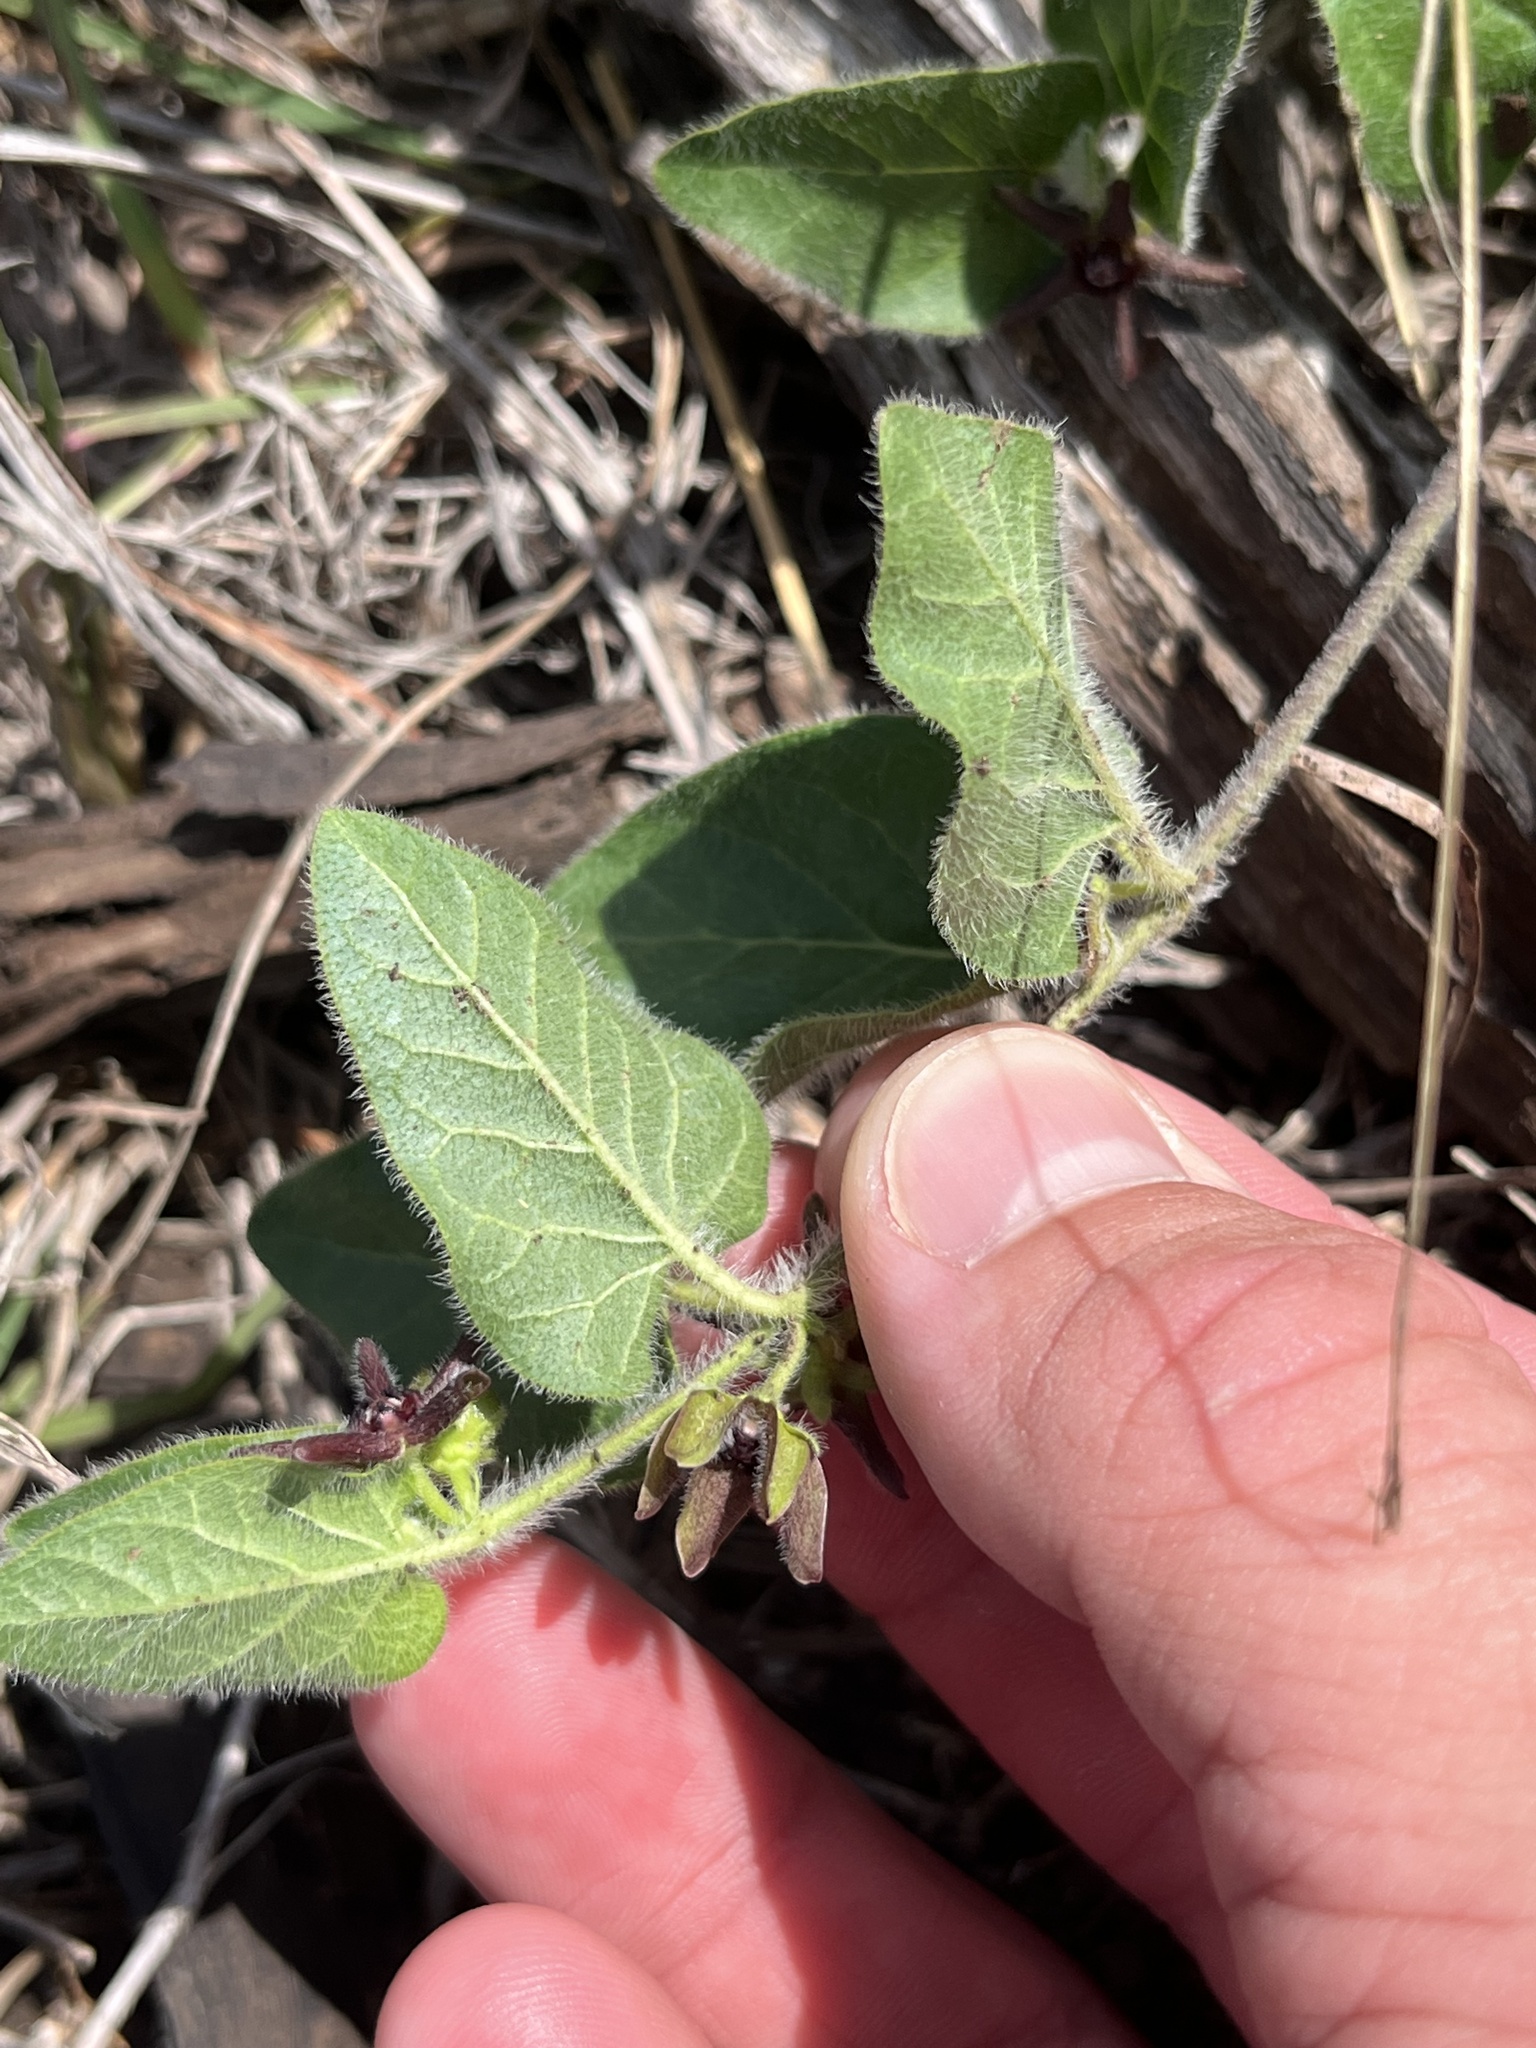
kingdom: Plantae
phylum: Tracheophyta
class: Magnoliopsida
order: Gentianales
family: Apocynaceae
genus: Chthamalia
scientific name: Chthamalia biflora
